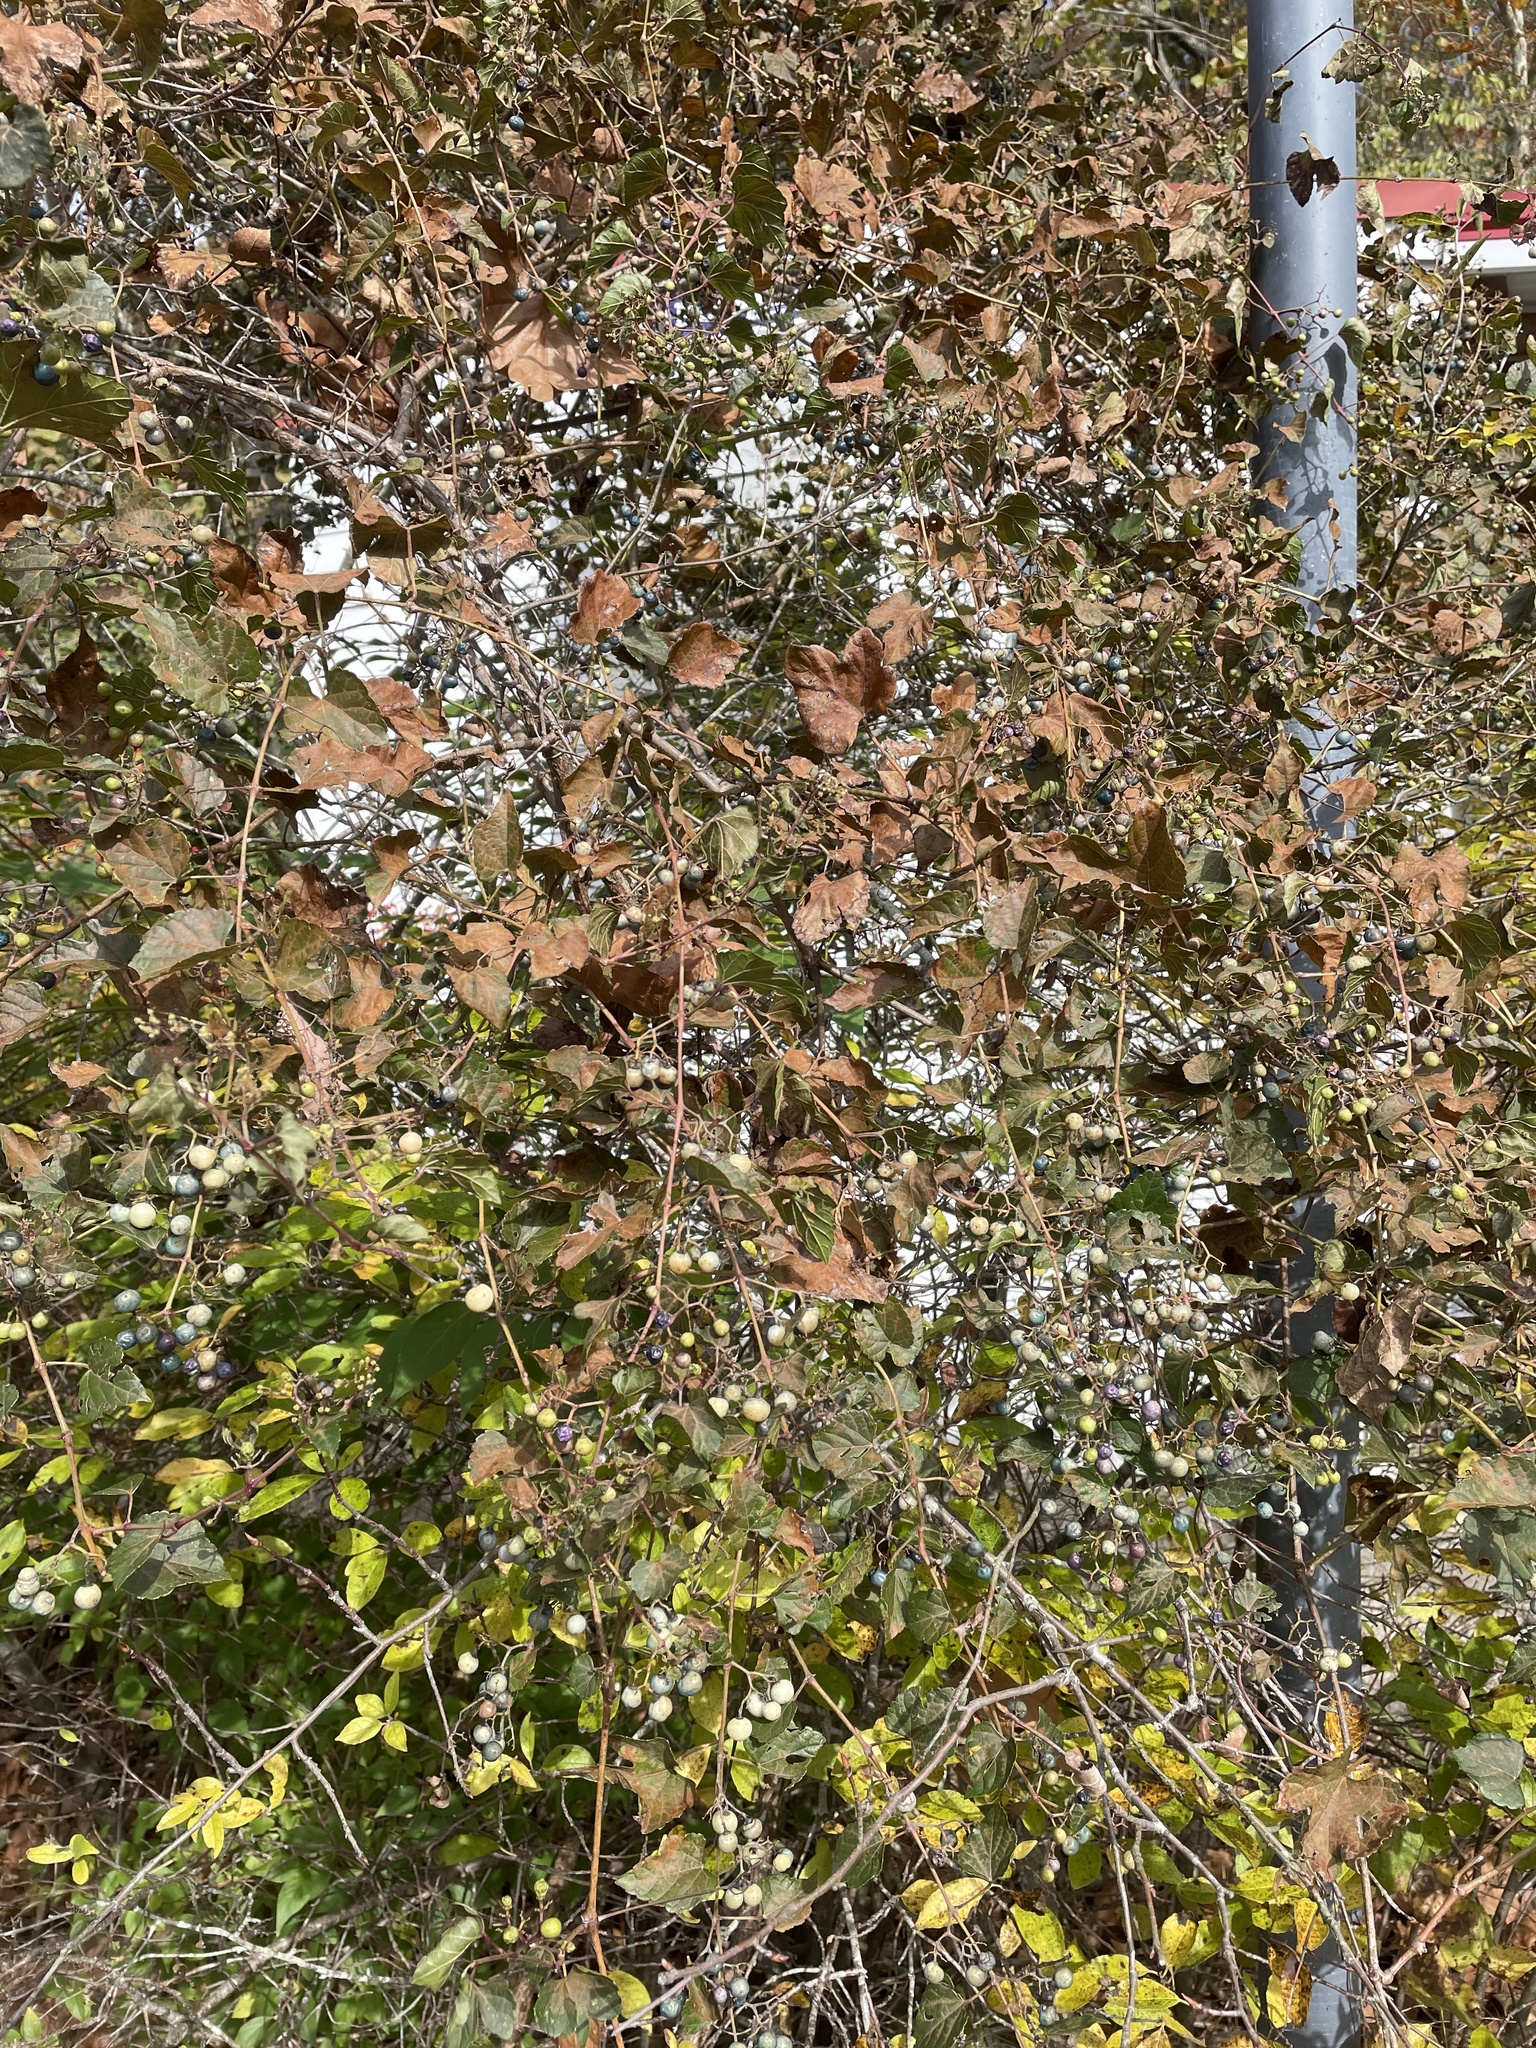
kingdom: Plantae
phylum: Tracheophyta
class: Magnoliopsida
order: Vitales
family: Vitaceae
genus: Ampelopsis
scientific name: Ampelopsis glandulosa
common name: Amur peppervine
